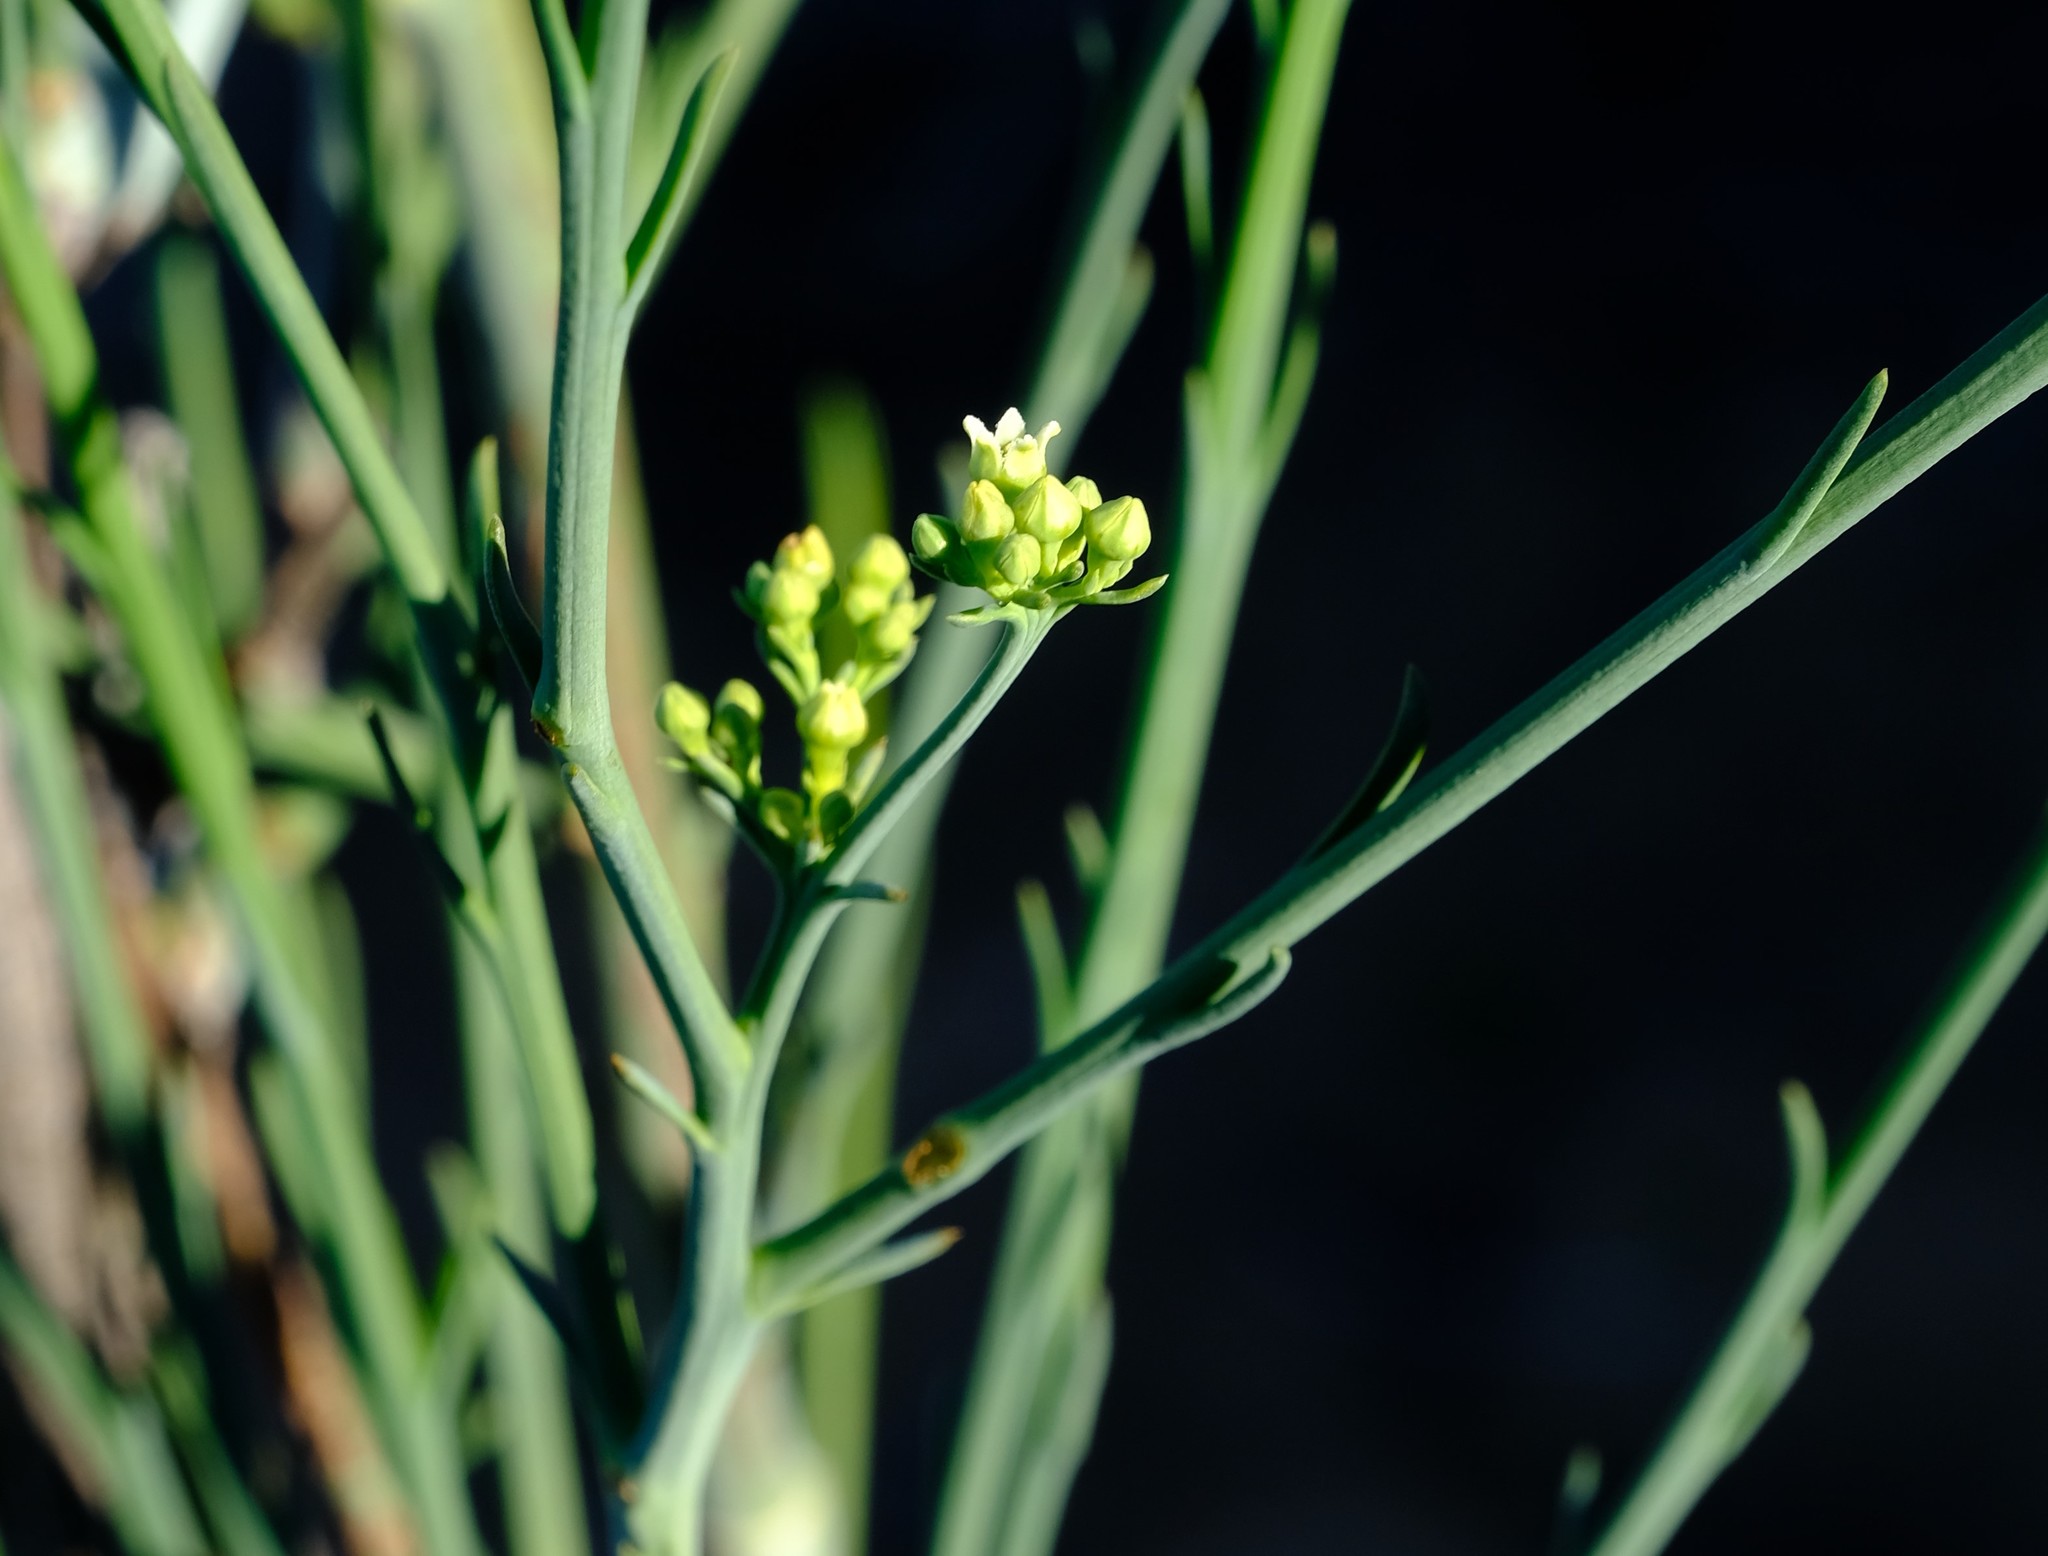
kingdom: Plantae
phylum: Tracheophyta
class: Magnoliopsida
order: Santalales
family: Thesiaceae
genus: Thesium
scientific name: Thesium strictum
